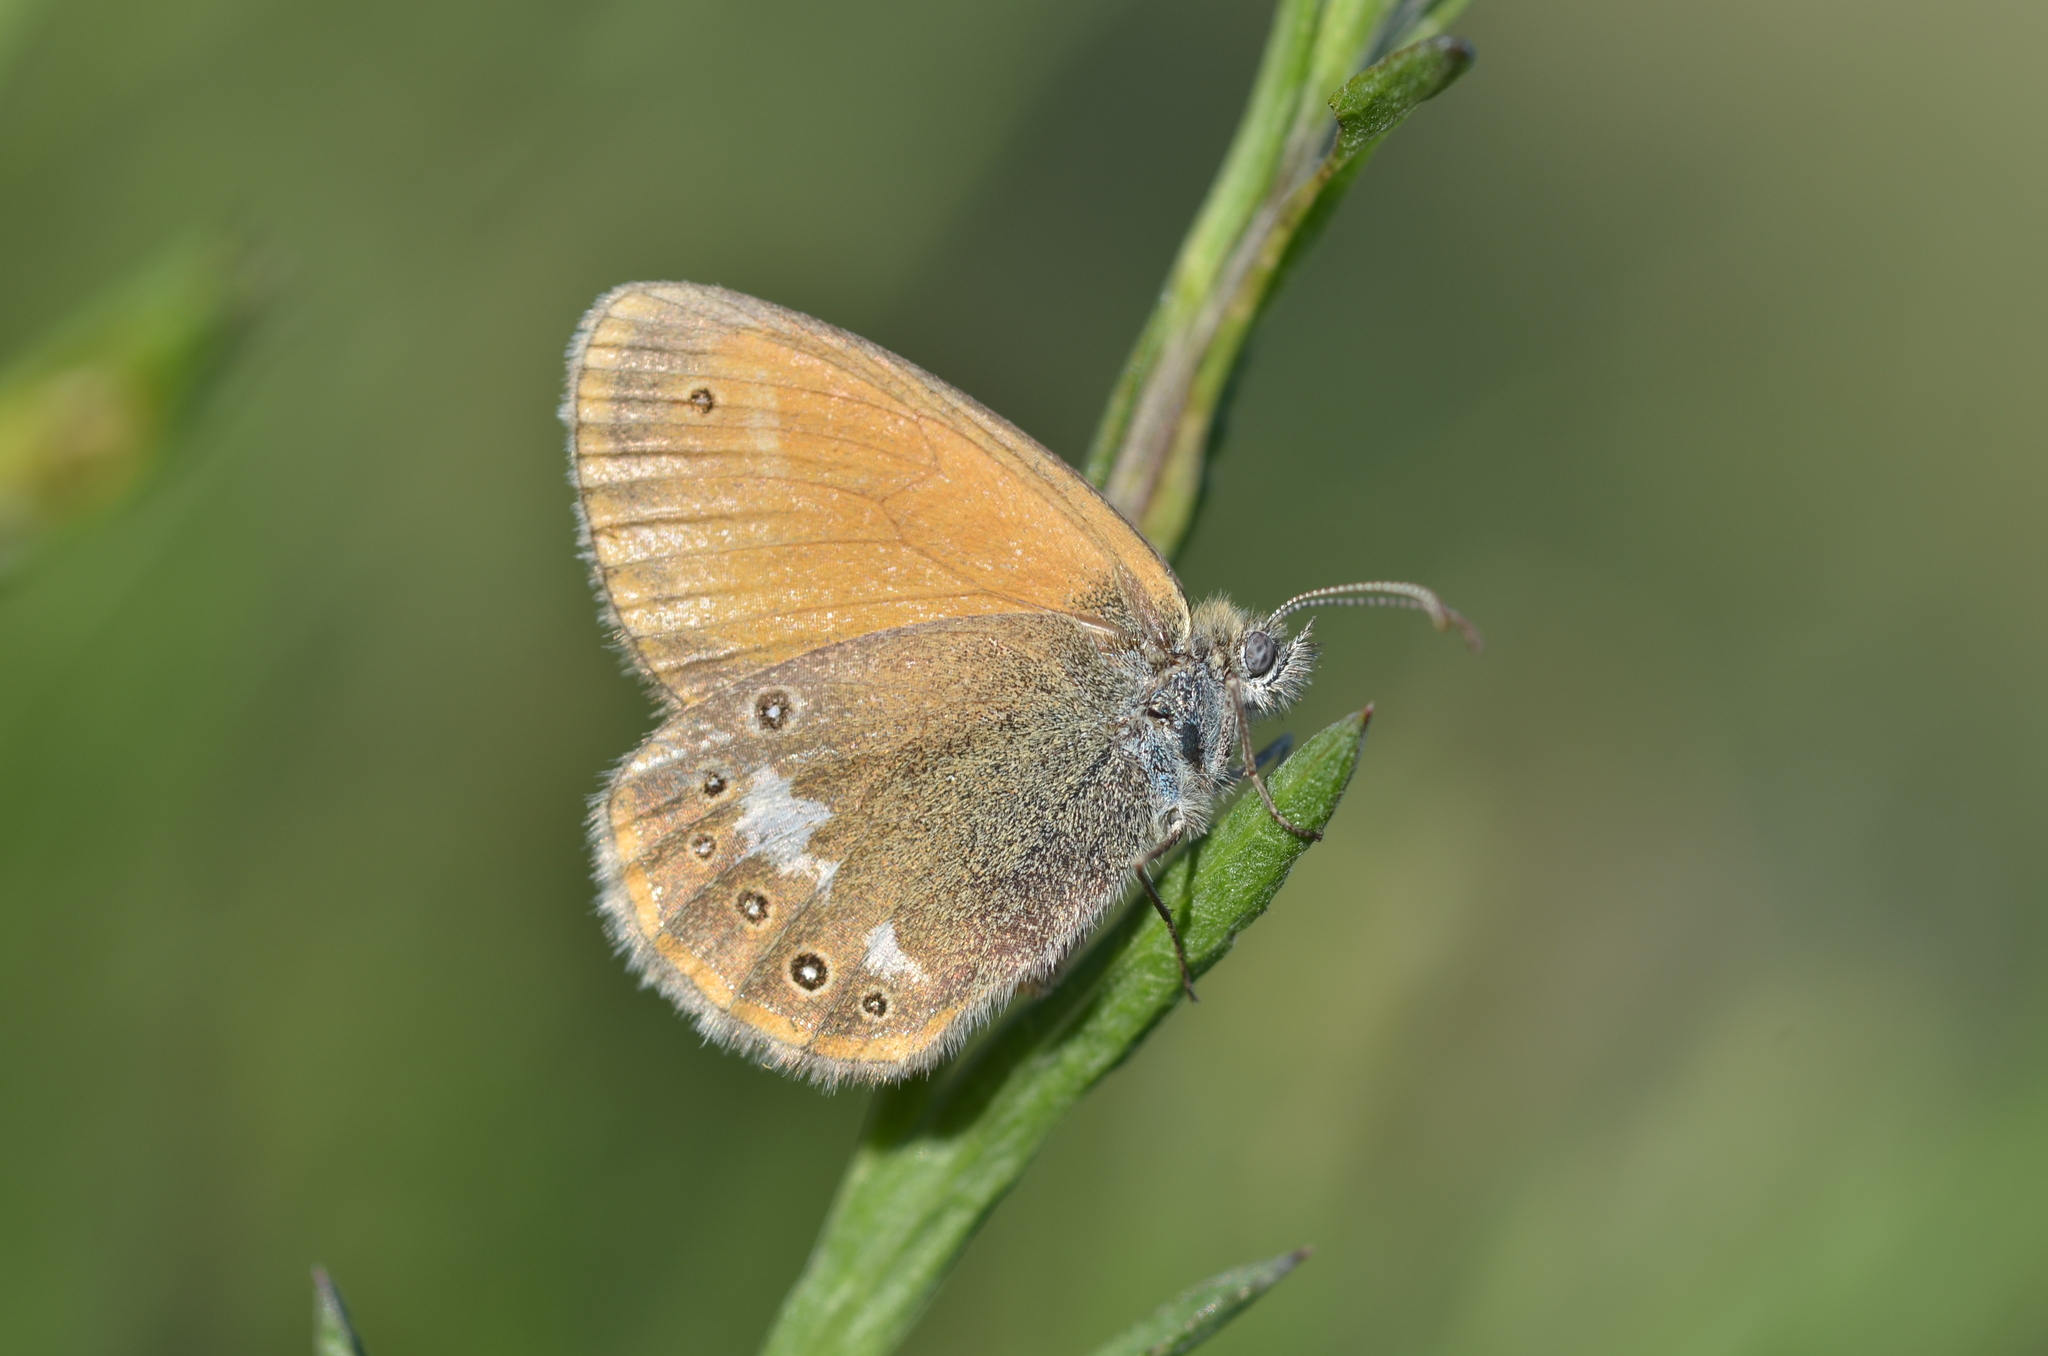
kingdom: Animalia
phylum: Arthropoda
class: Insecta
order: Lepidoptera
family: Nymphalidae
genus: Coenonympha
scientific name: Coenonympha iphis
